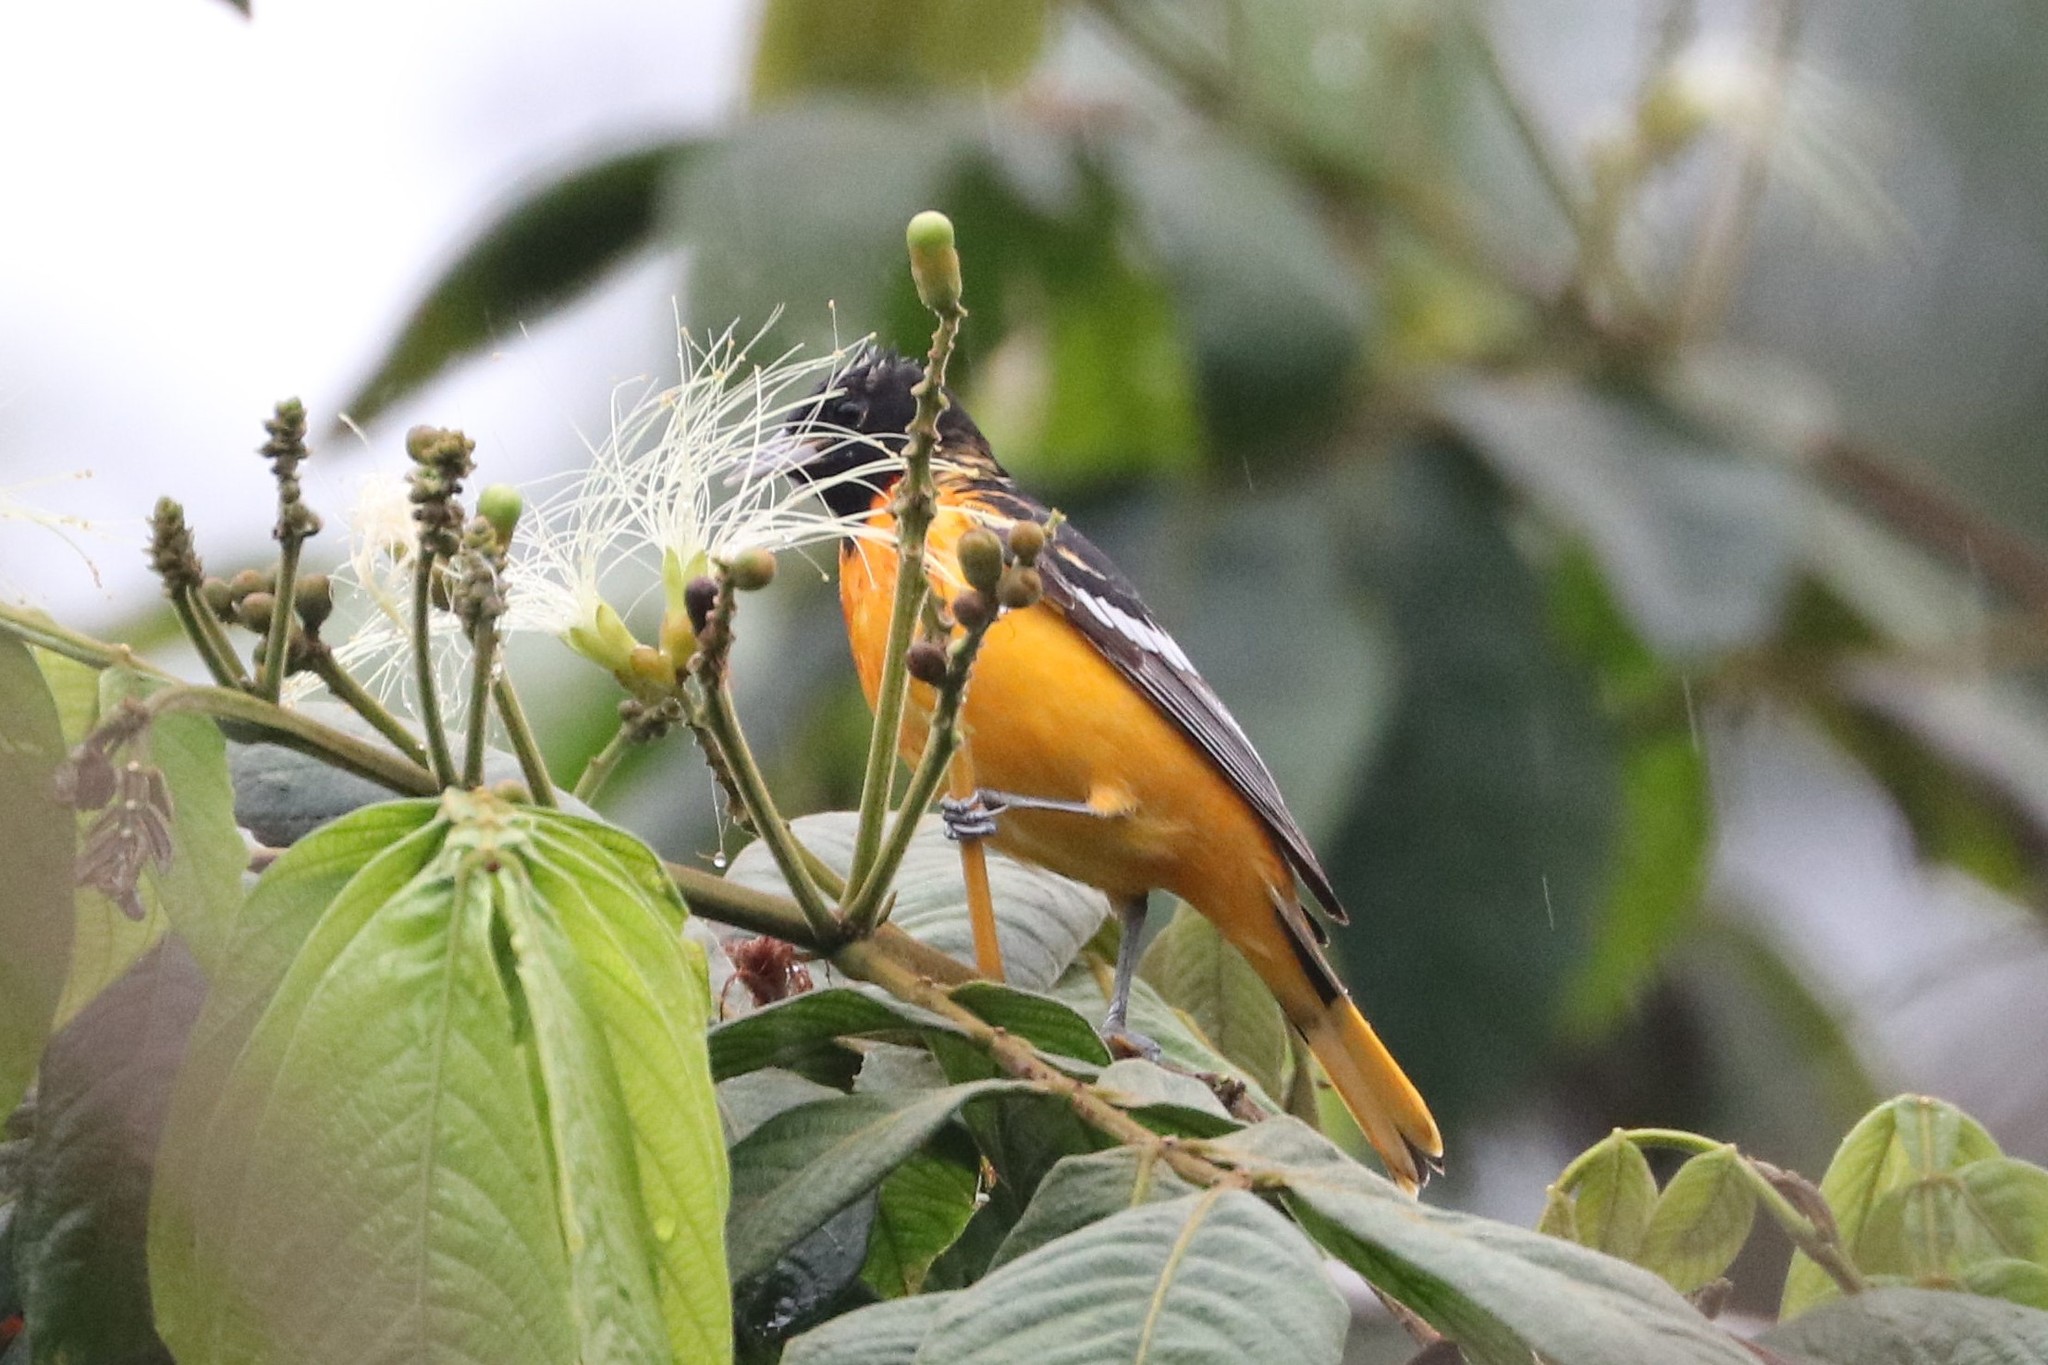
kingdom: Animalia
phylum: Chordata
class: Aves
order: Passeriformes
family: Icteridae
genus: Icterus
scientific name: Icterus galbula
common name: Baltimore oriole
